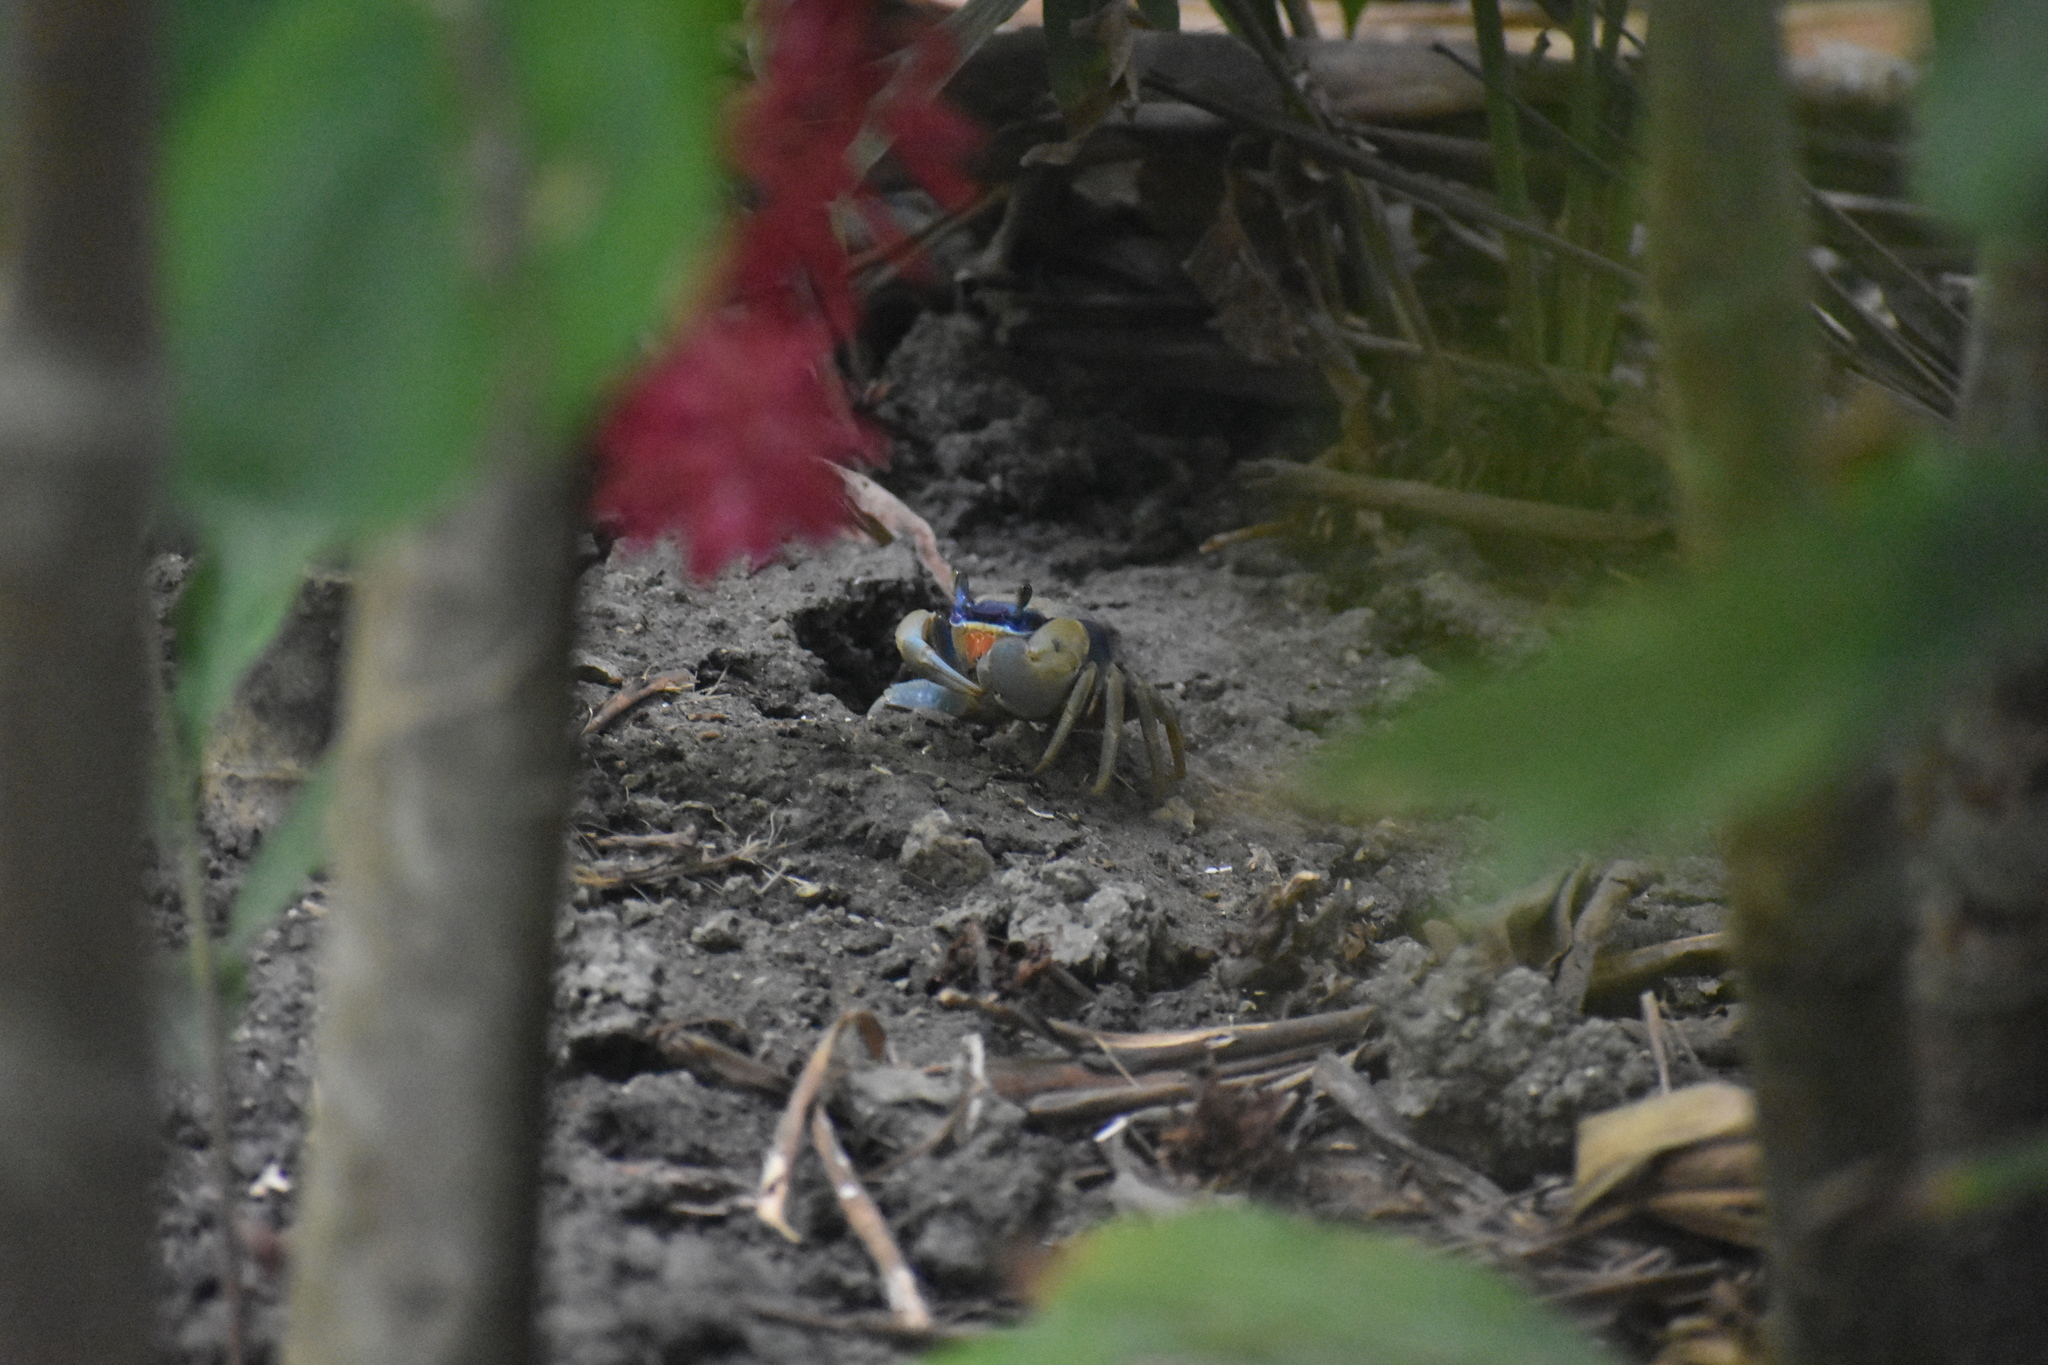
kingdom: Animalia
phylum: Arthropoda
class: Malacostraca
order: Decapoda
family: Gecarcinidae
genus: Cardisoma
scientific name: Cardisoma guanhumi
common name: Great land crab
